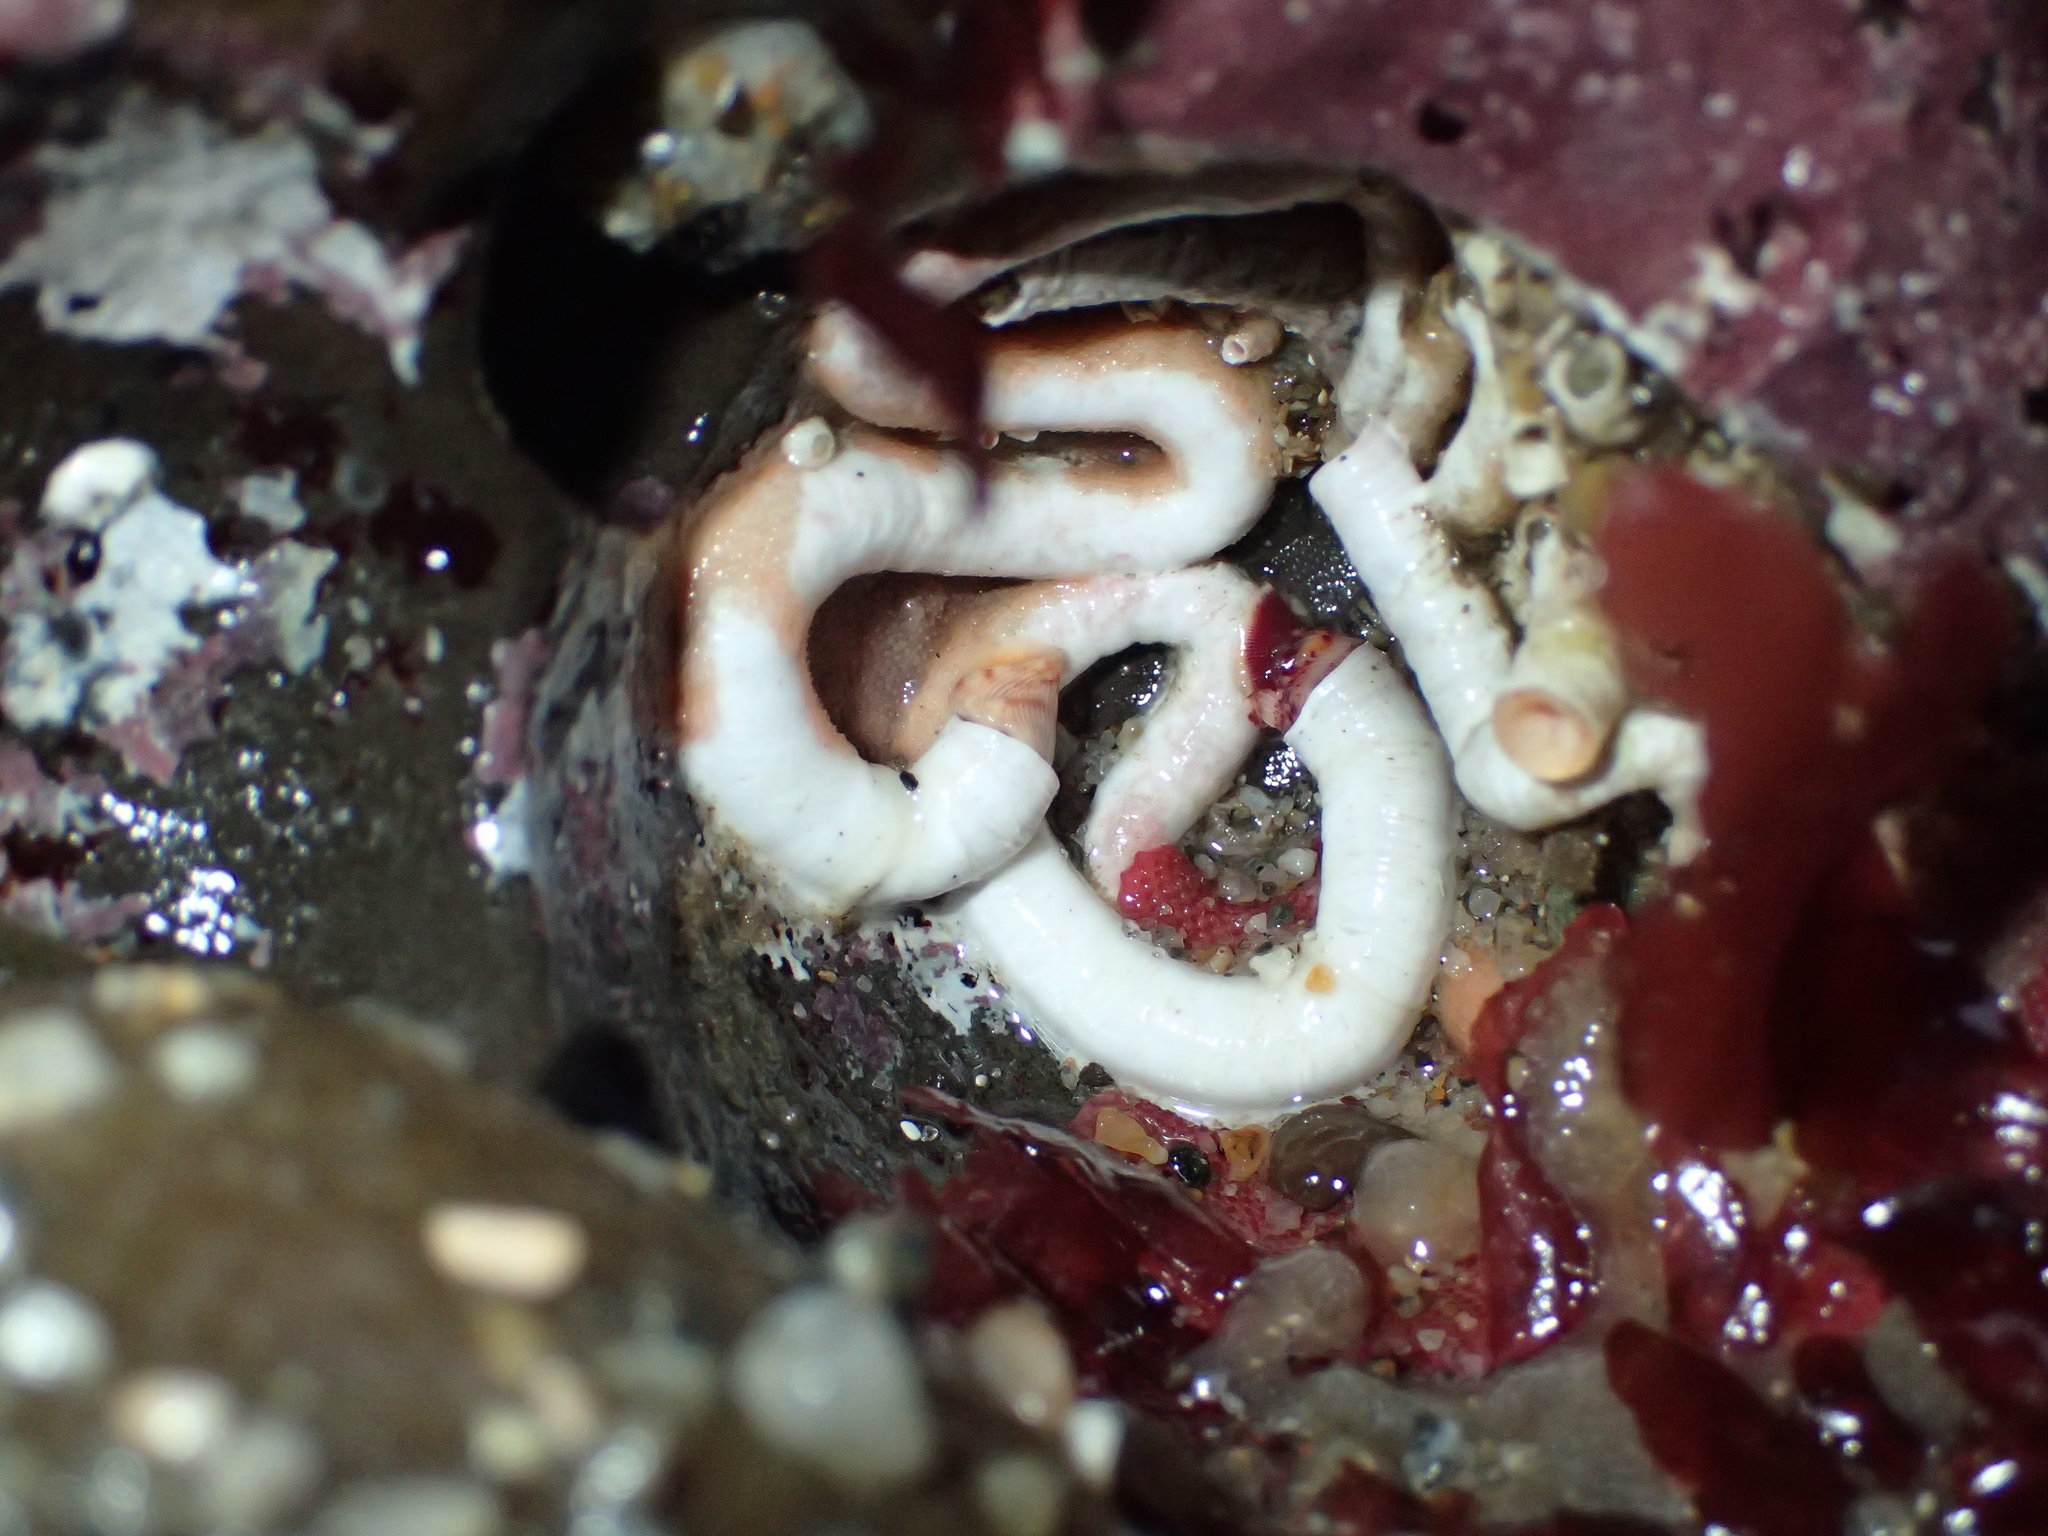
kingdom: Animalia
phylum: Annelida
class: Polychaeta
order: Sabellida
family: Serpulidae
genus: Serpula
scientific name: Serpula columbiana
